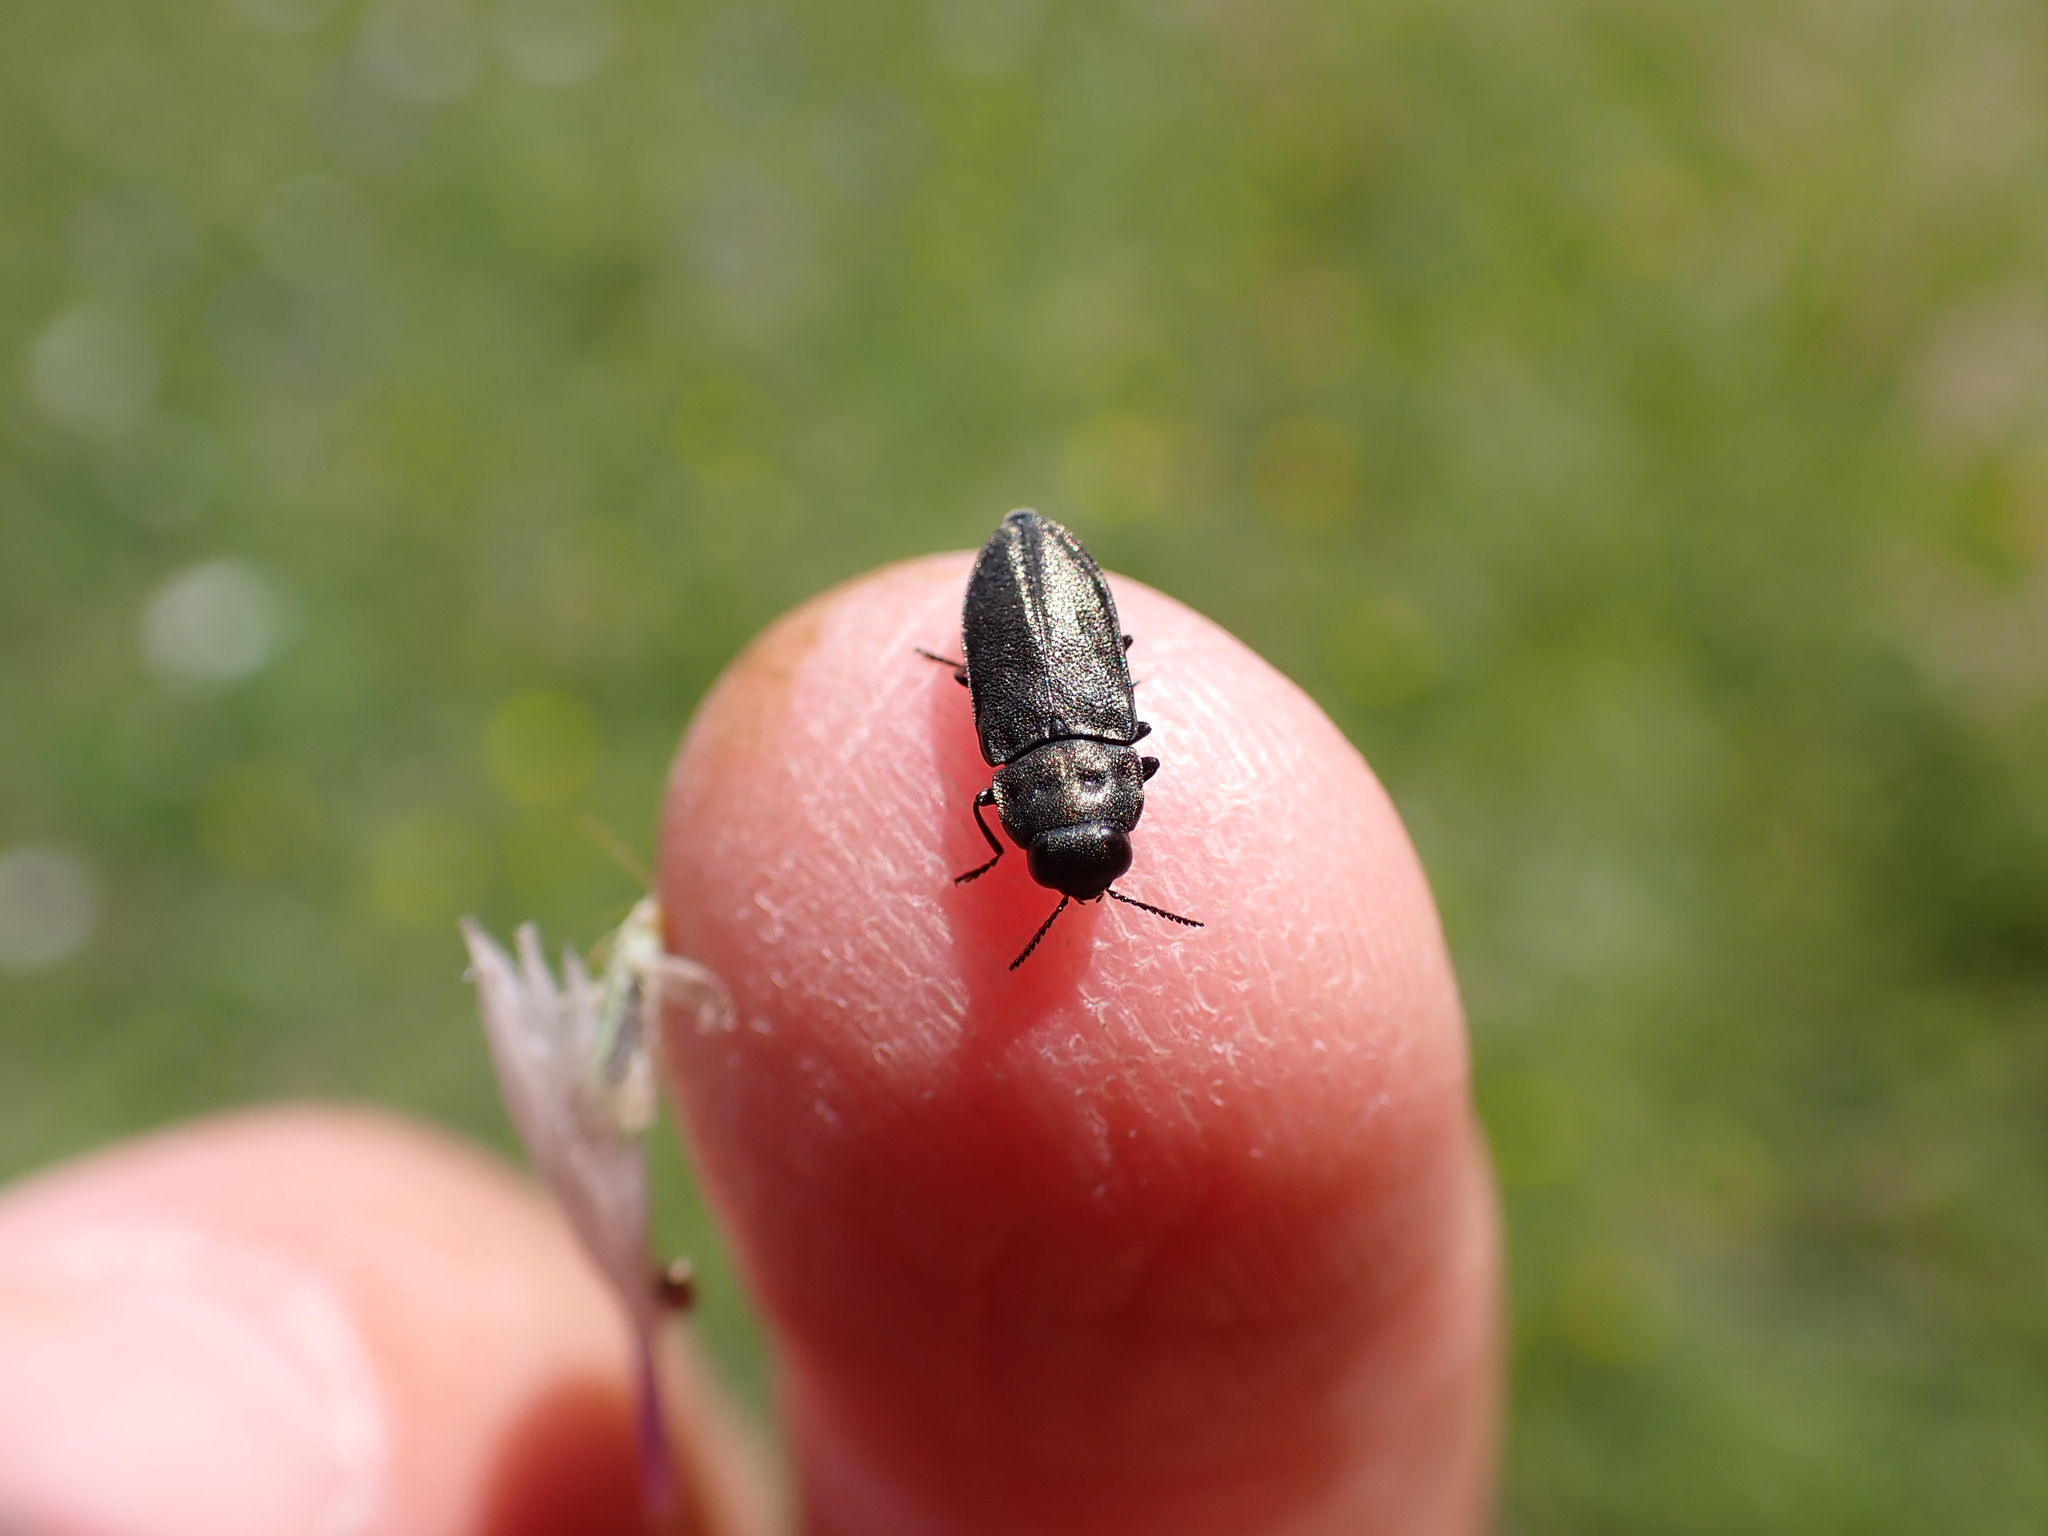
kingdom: Animalia
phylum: Arthropoda
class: Insecta
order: Coleoptera
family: Buprestidae
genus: Anthaxia
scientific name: Anthaxia quadripunctata
